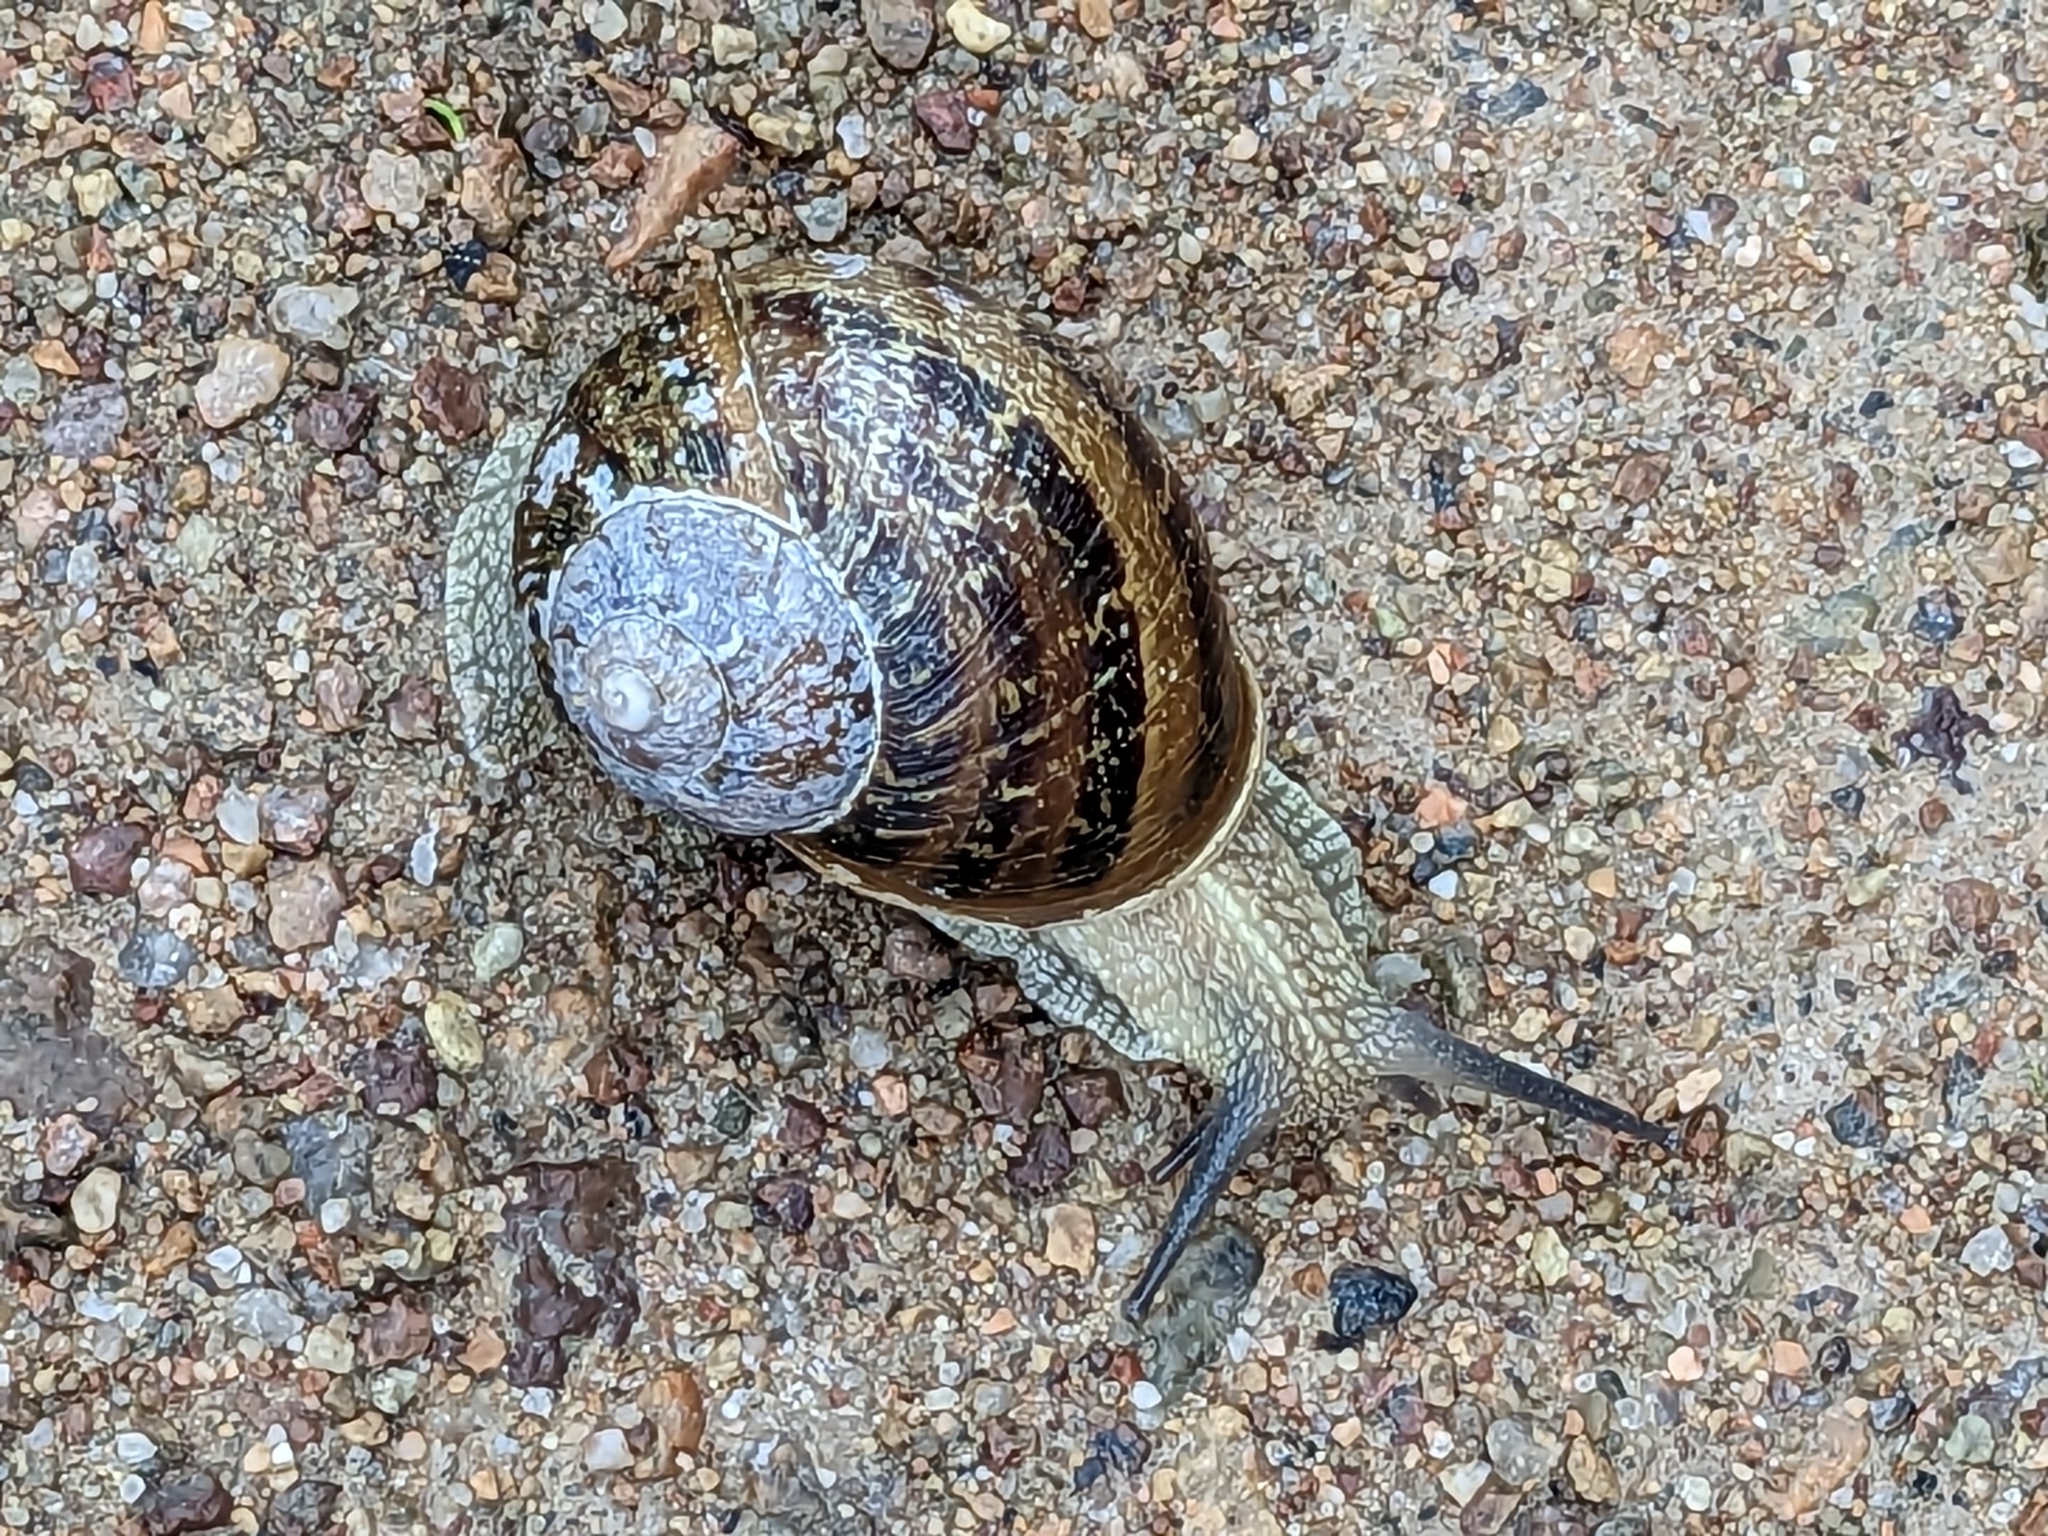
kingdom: Animalia
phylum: Mollusca
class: Gastropoda
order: Stylommatophora
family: Helicidae
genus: Cornu
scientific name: Cornu aspersum
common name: Brown garden snail
